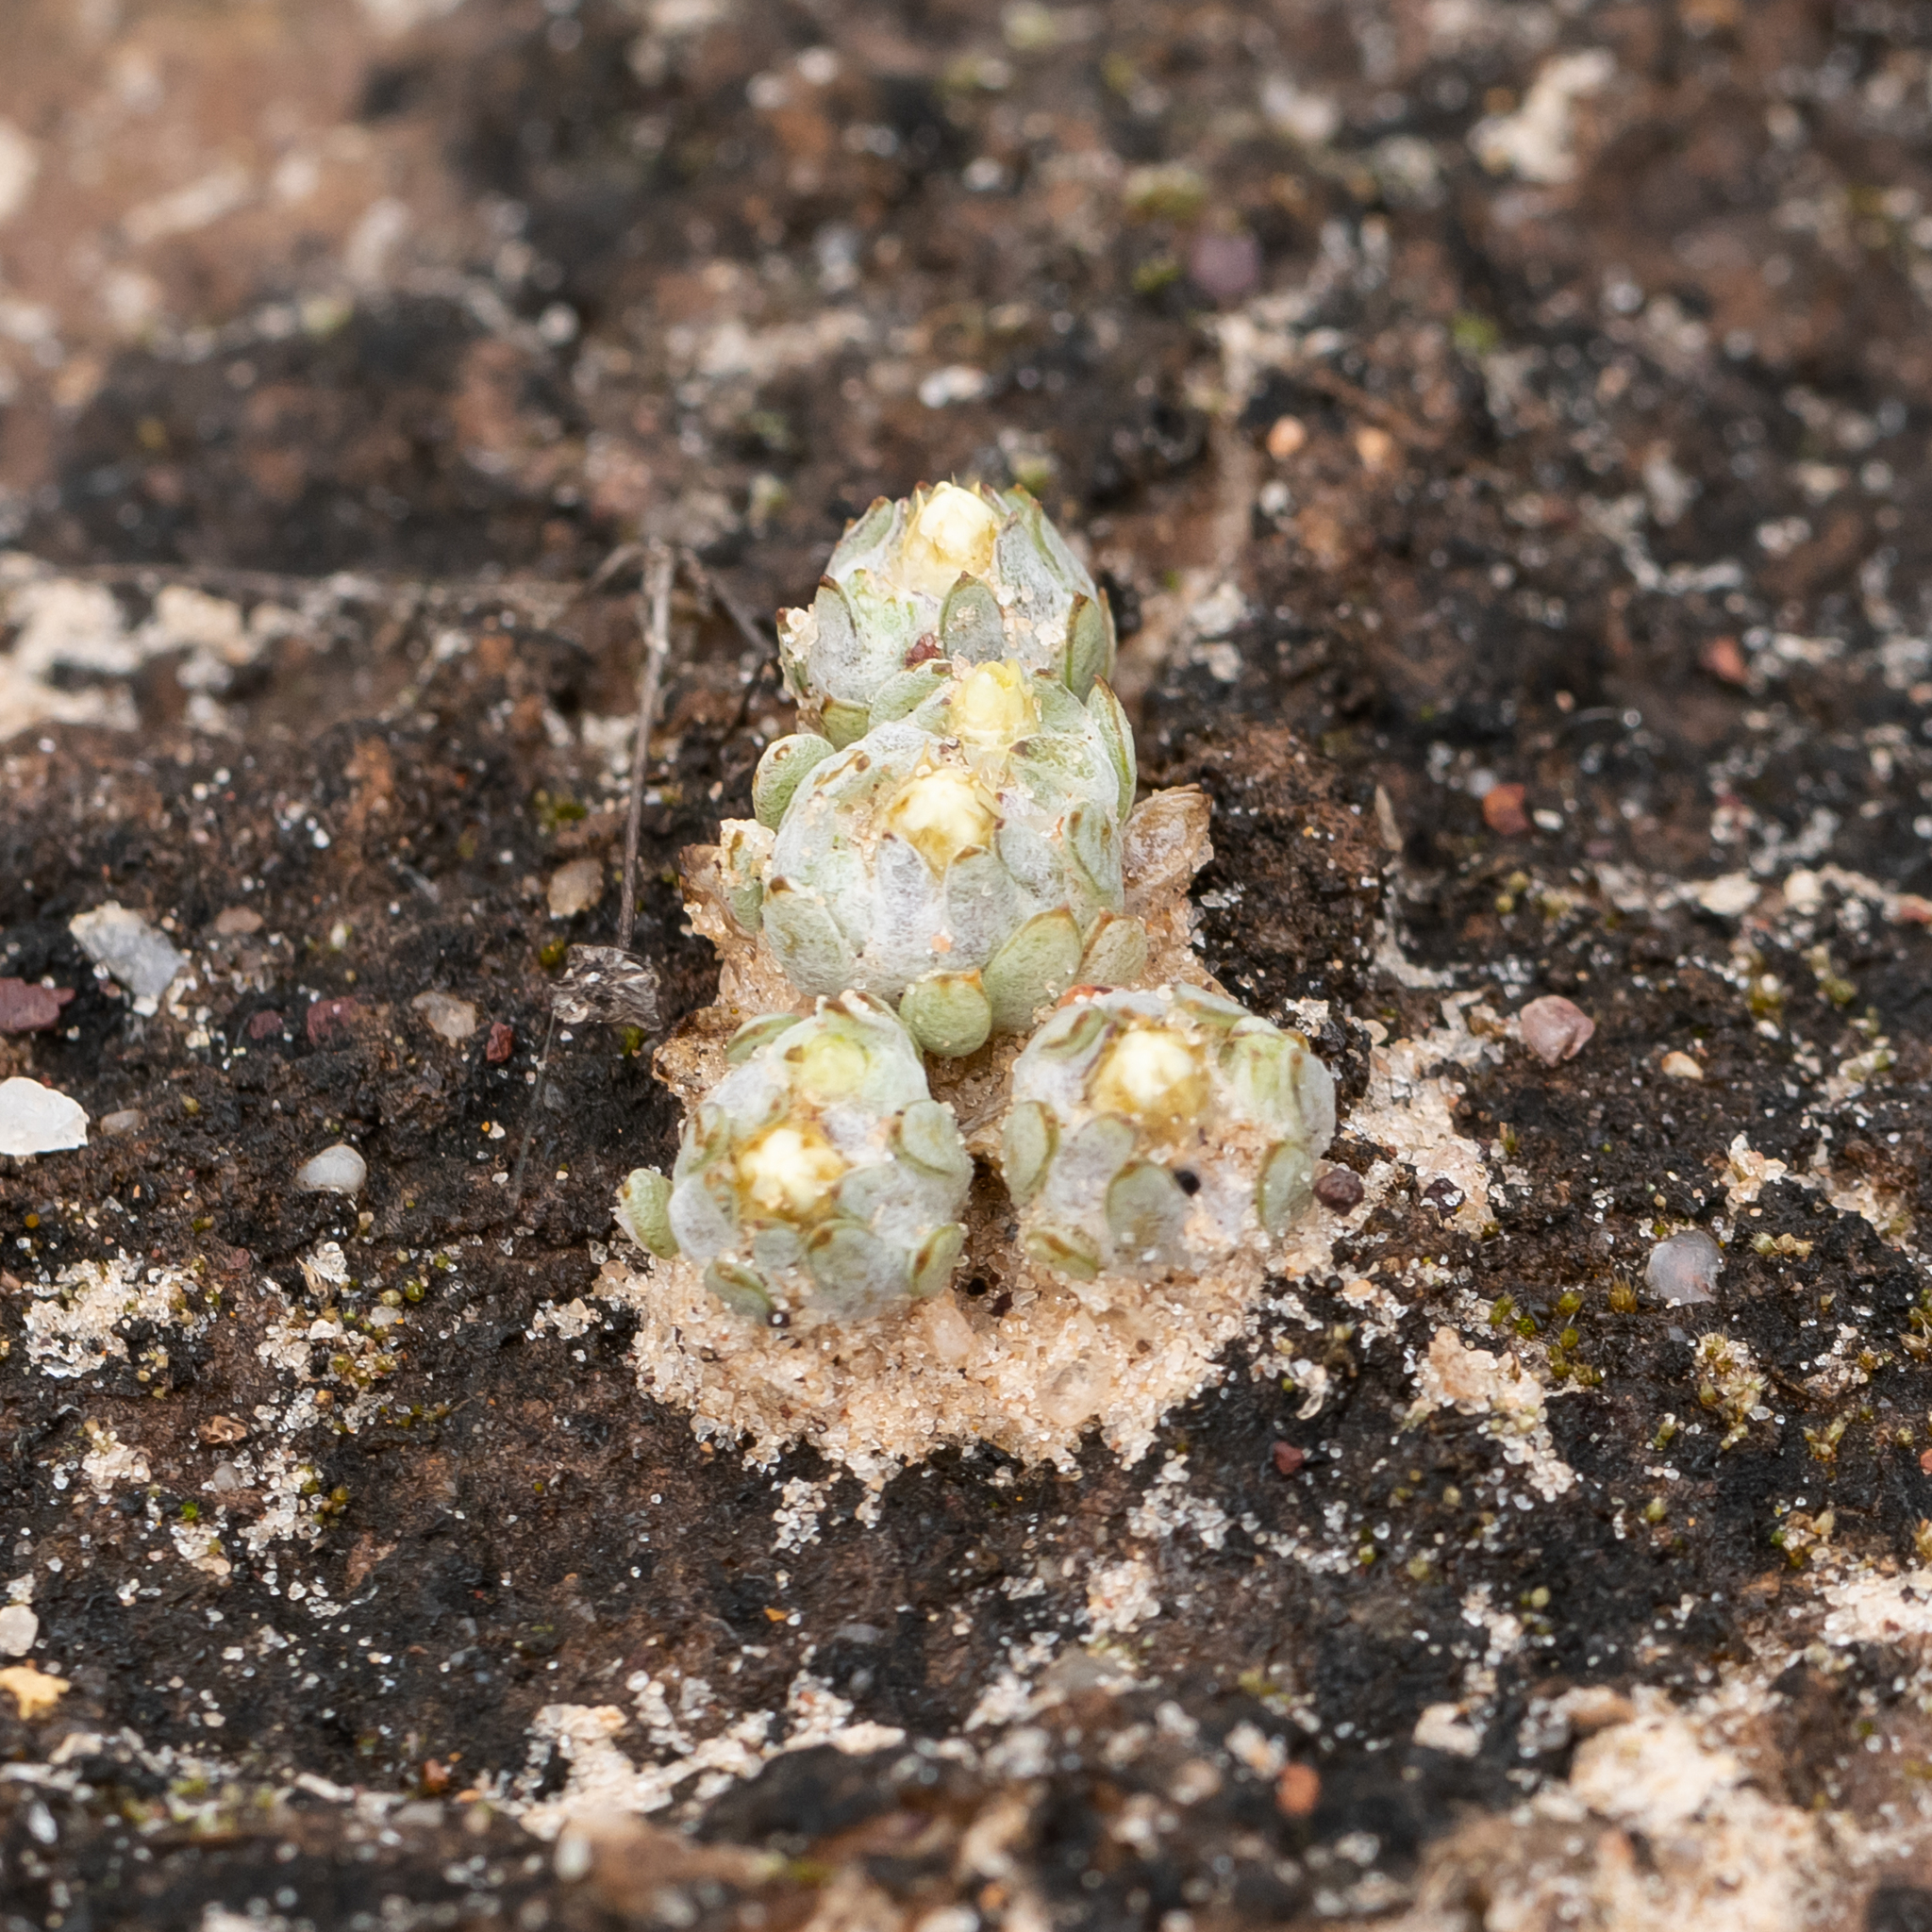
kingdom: Plantae
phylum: Tracheophyta
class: Magnoliopsida
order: Asterales
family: Asteraceae
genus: Actinobole
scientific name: Actinobole uliginosum
